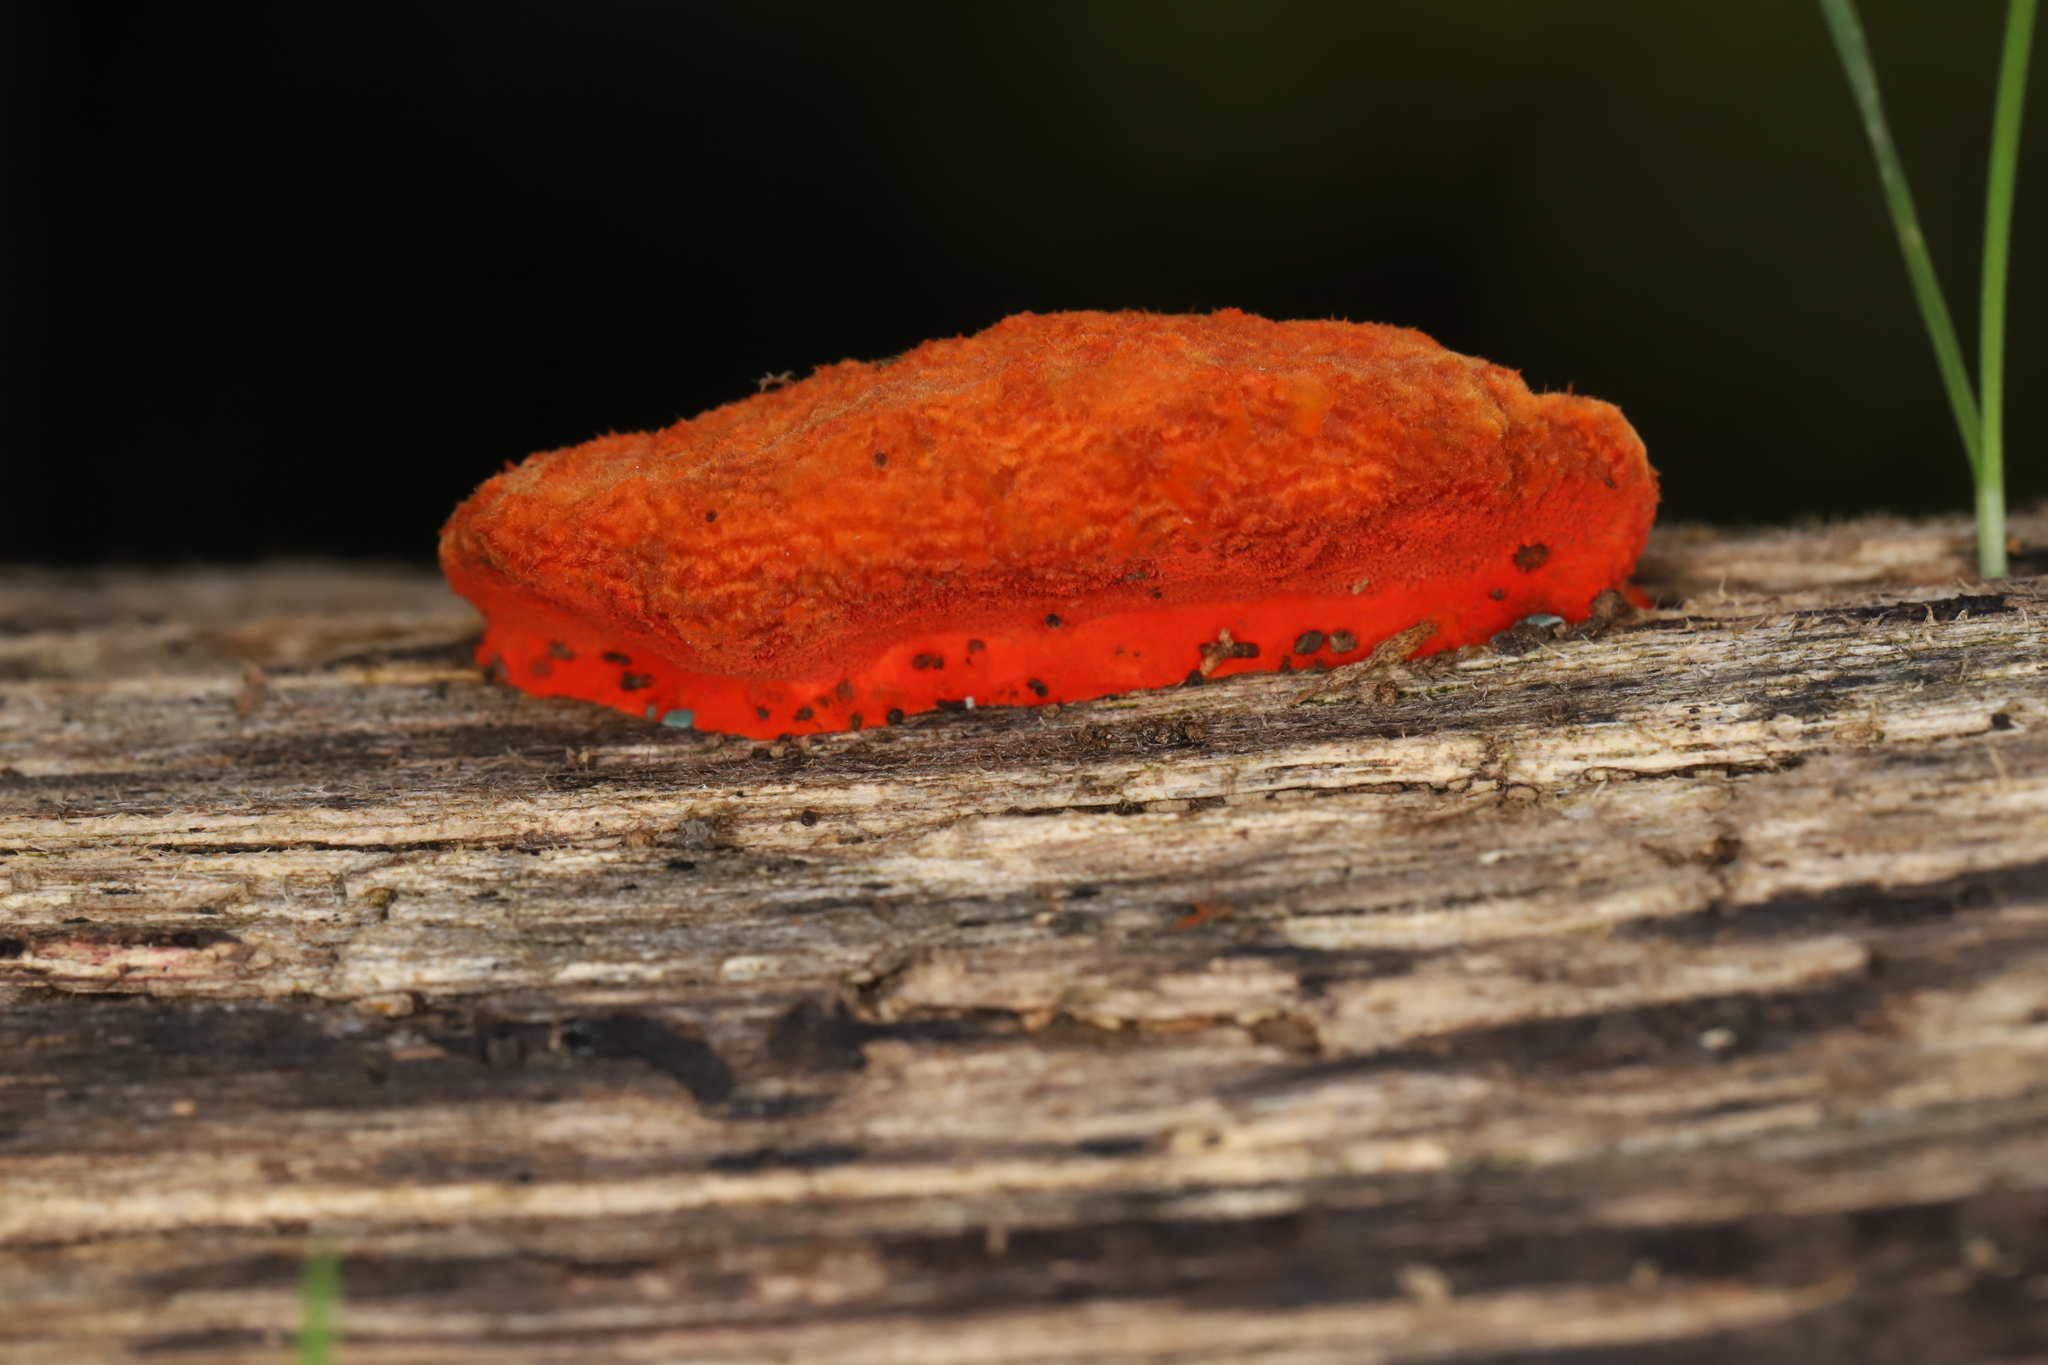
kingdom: Fungi
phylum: Basidiomycota
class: Agaricomycetes
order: Polyporales
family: Polyporaceae
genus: Trametes
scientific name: Trametes coccinea
